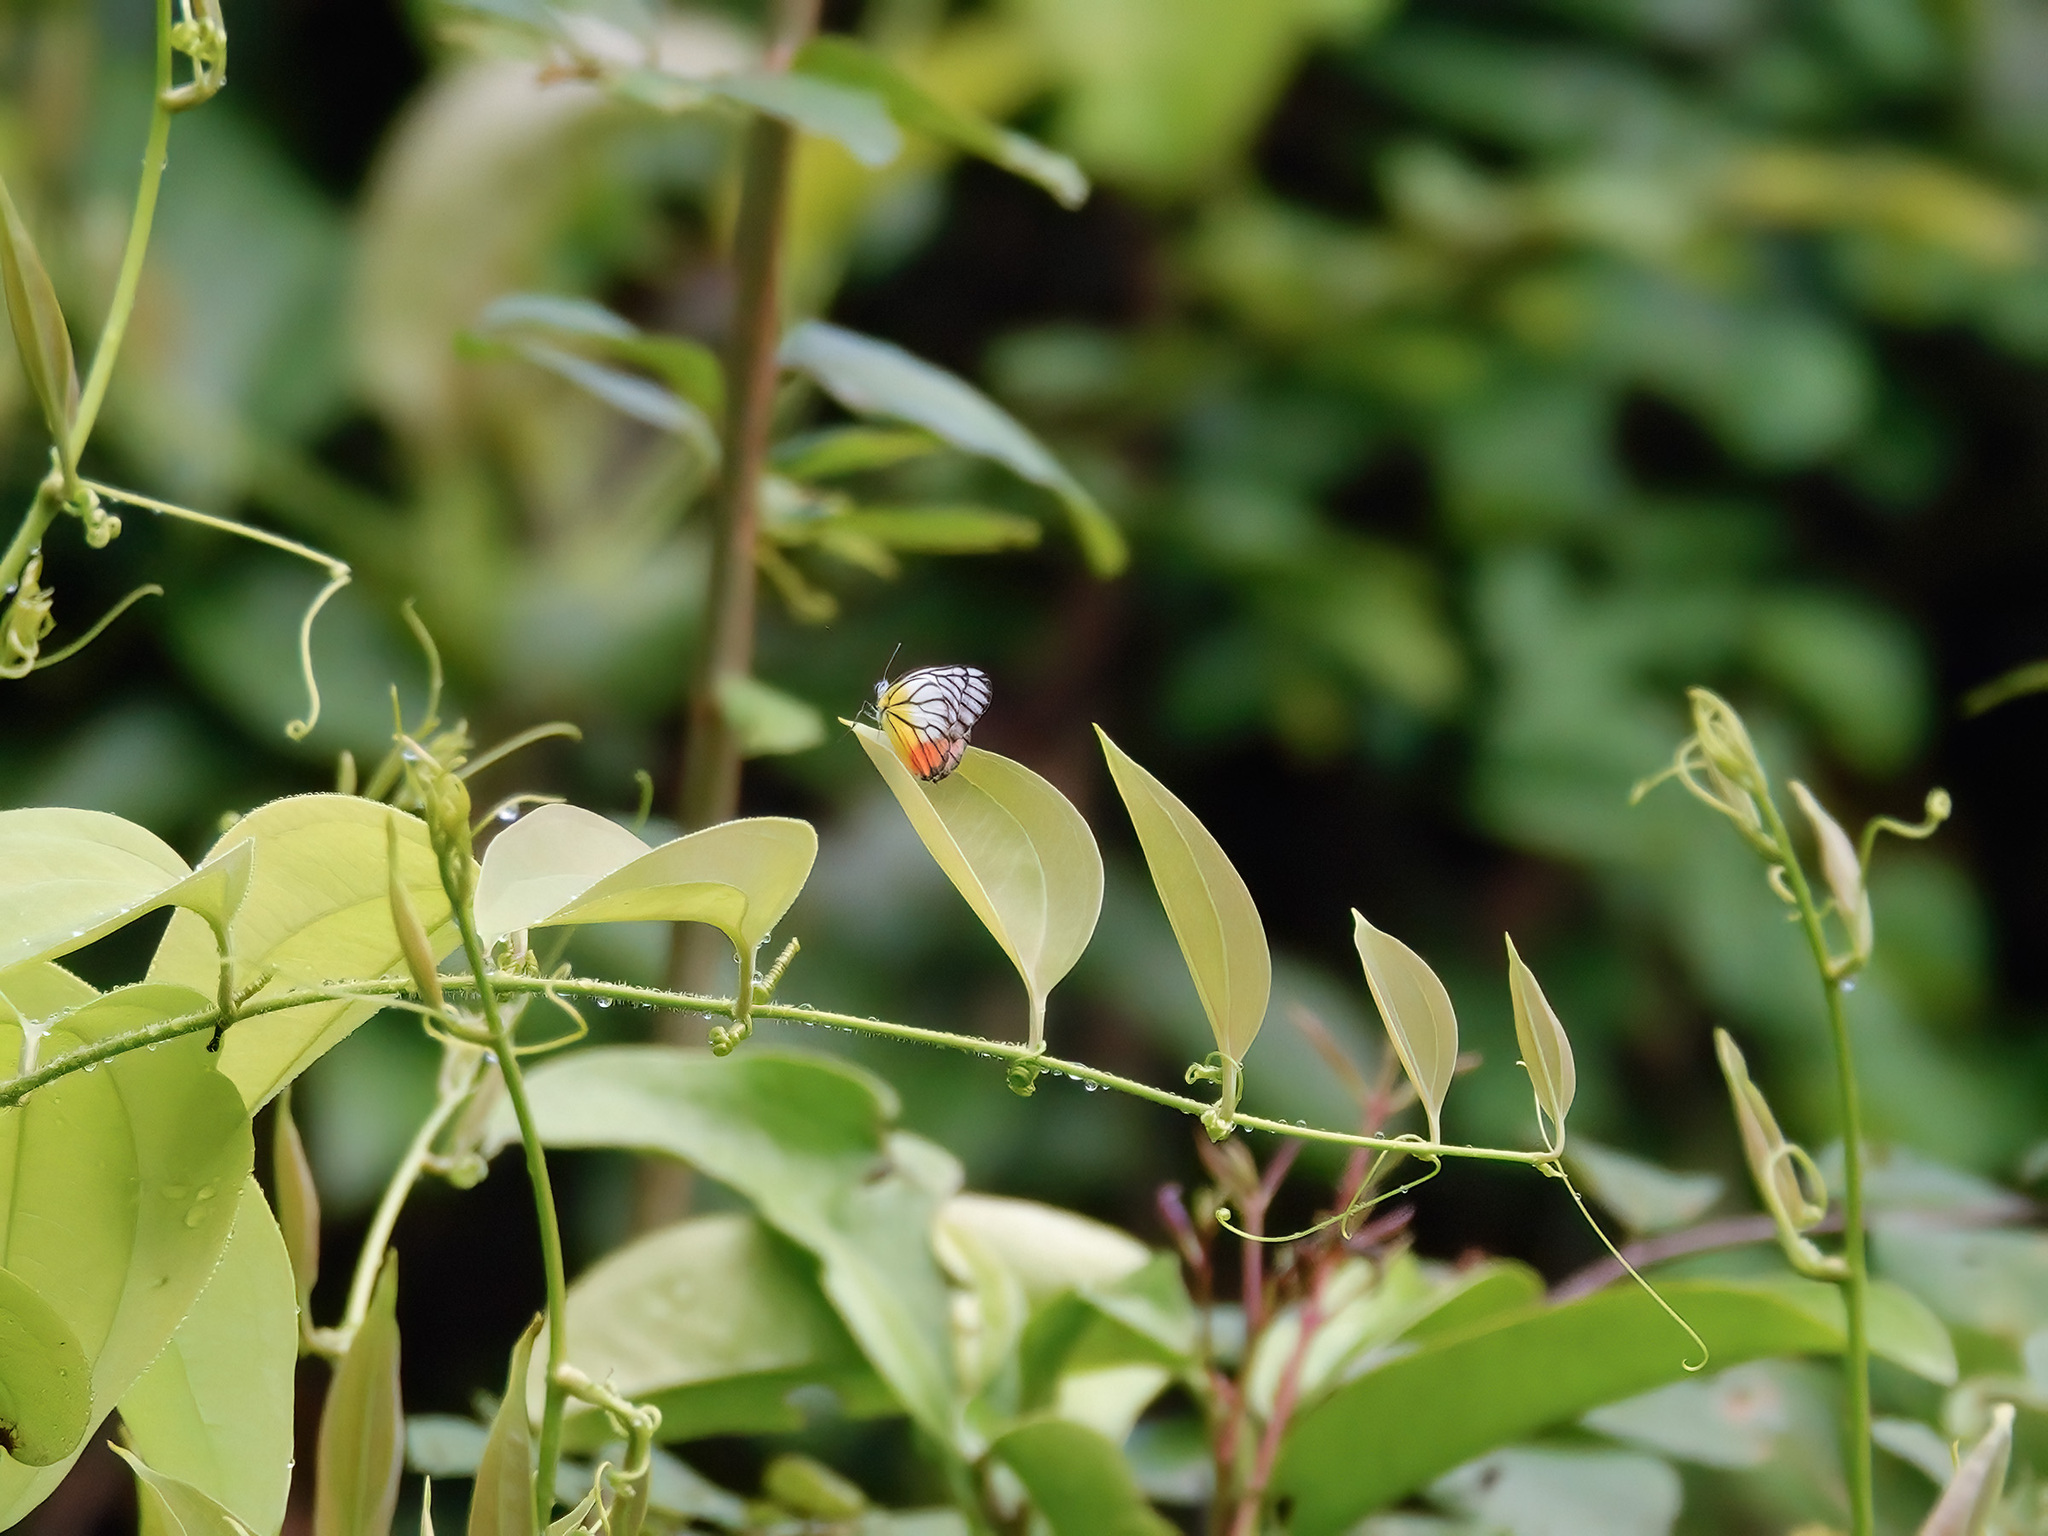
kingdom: Animalia
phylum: Arthropoda
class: Insecta
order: Lepidoptera
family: Pieridae
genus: Delias
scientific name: Delias hyparete
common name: Painted jezebel
